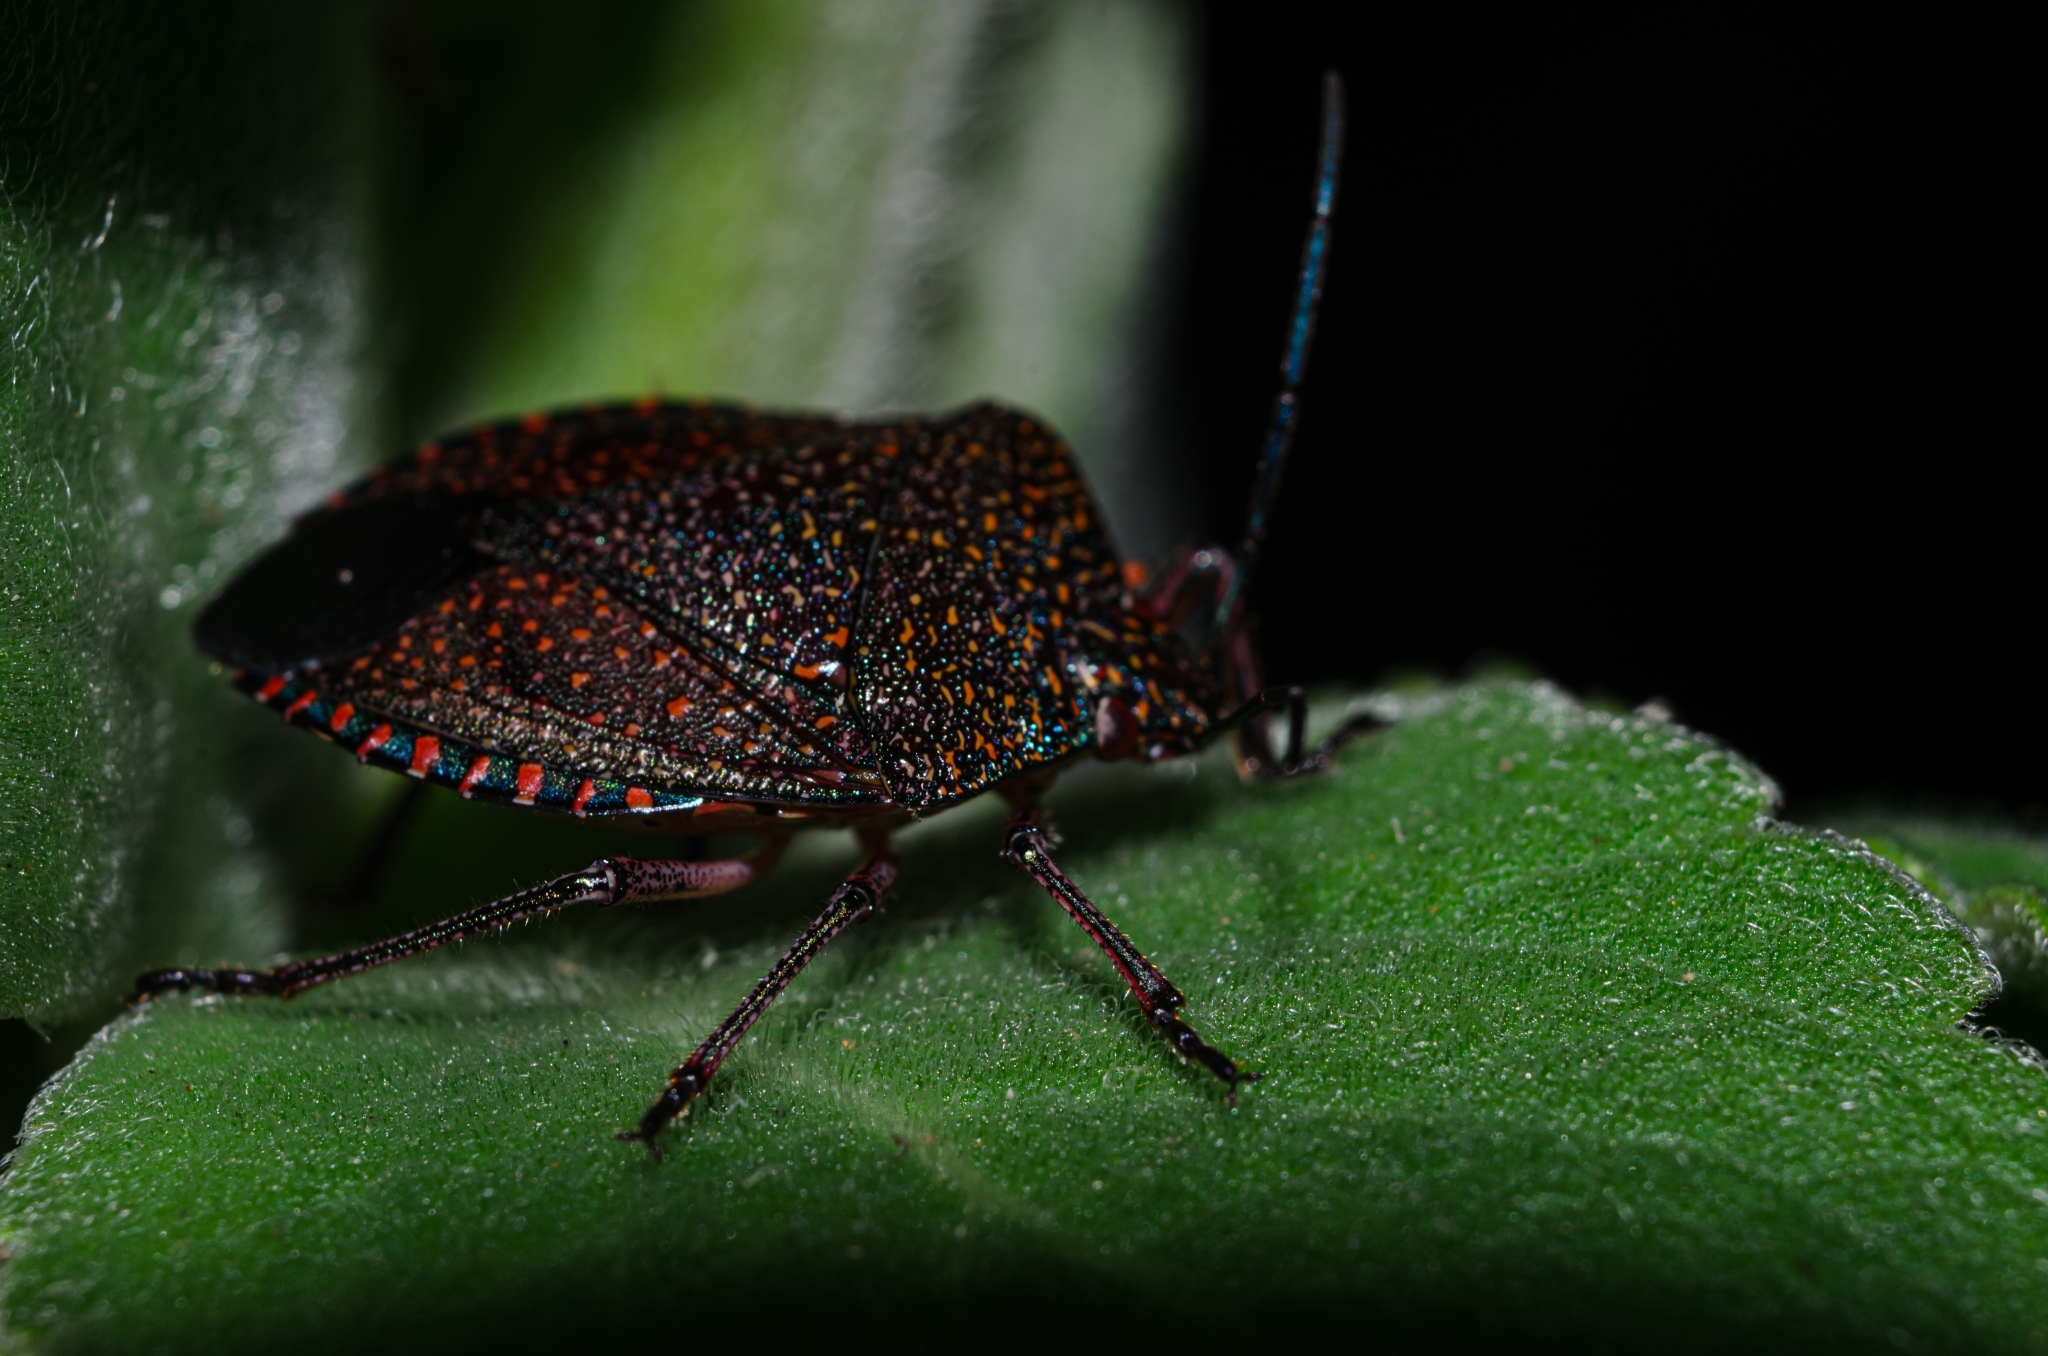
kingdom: Animalia
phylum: Arthropoda
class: Insecta
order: Hemiptera
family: Pentatomidae
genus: Pellaea
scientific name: Pellaea stictica
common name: Stink bug
